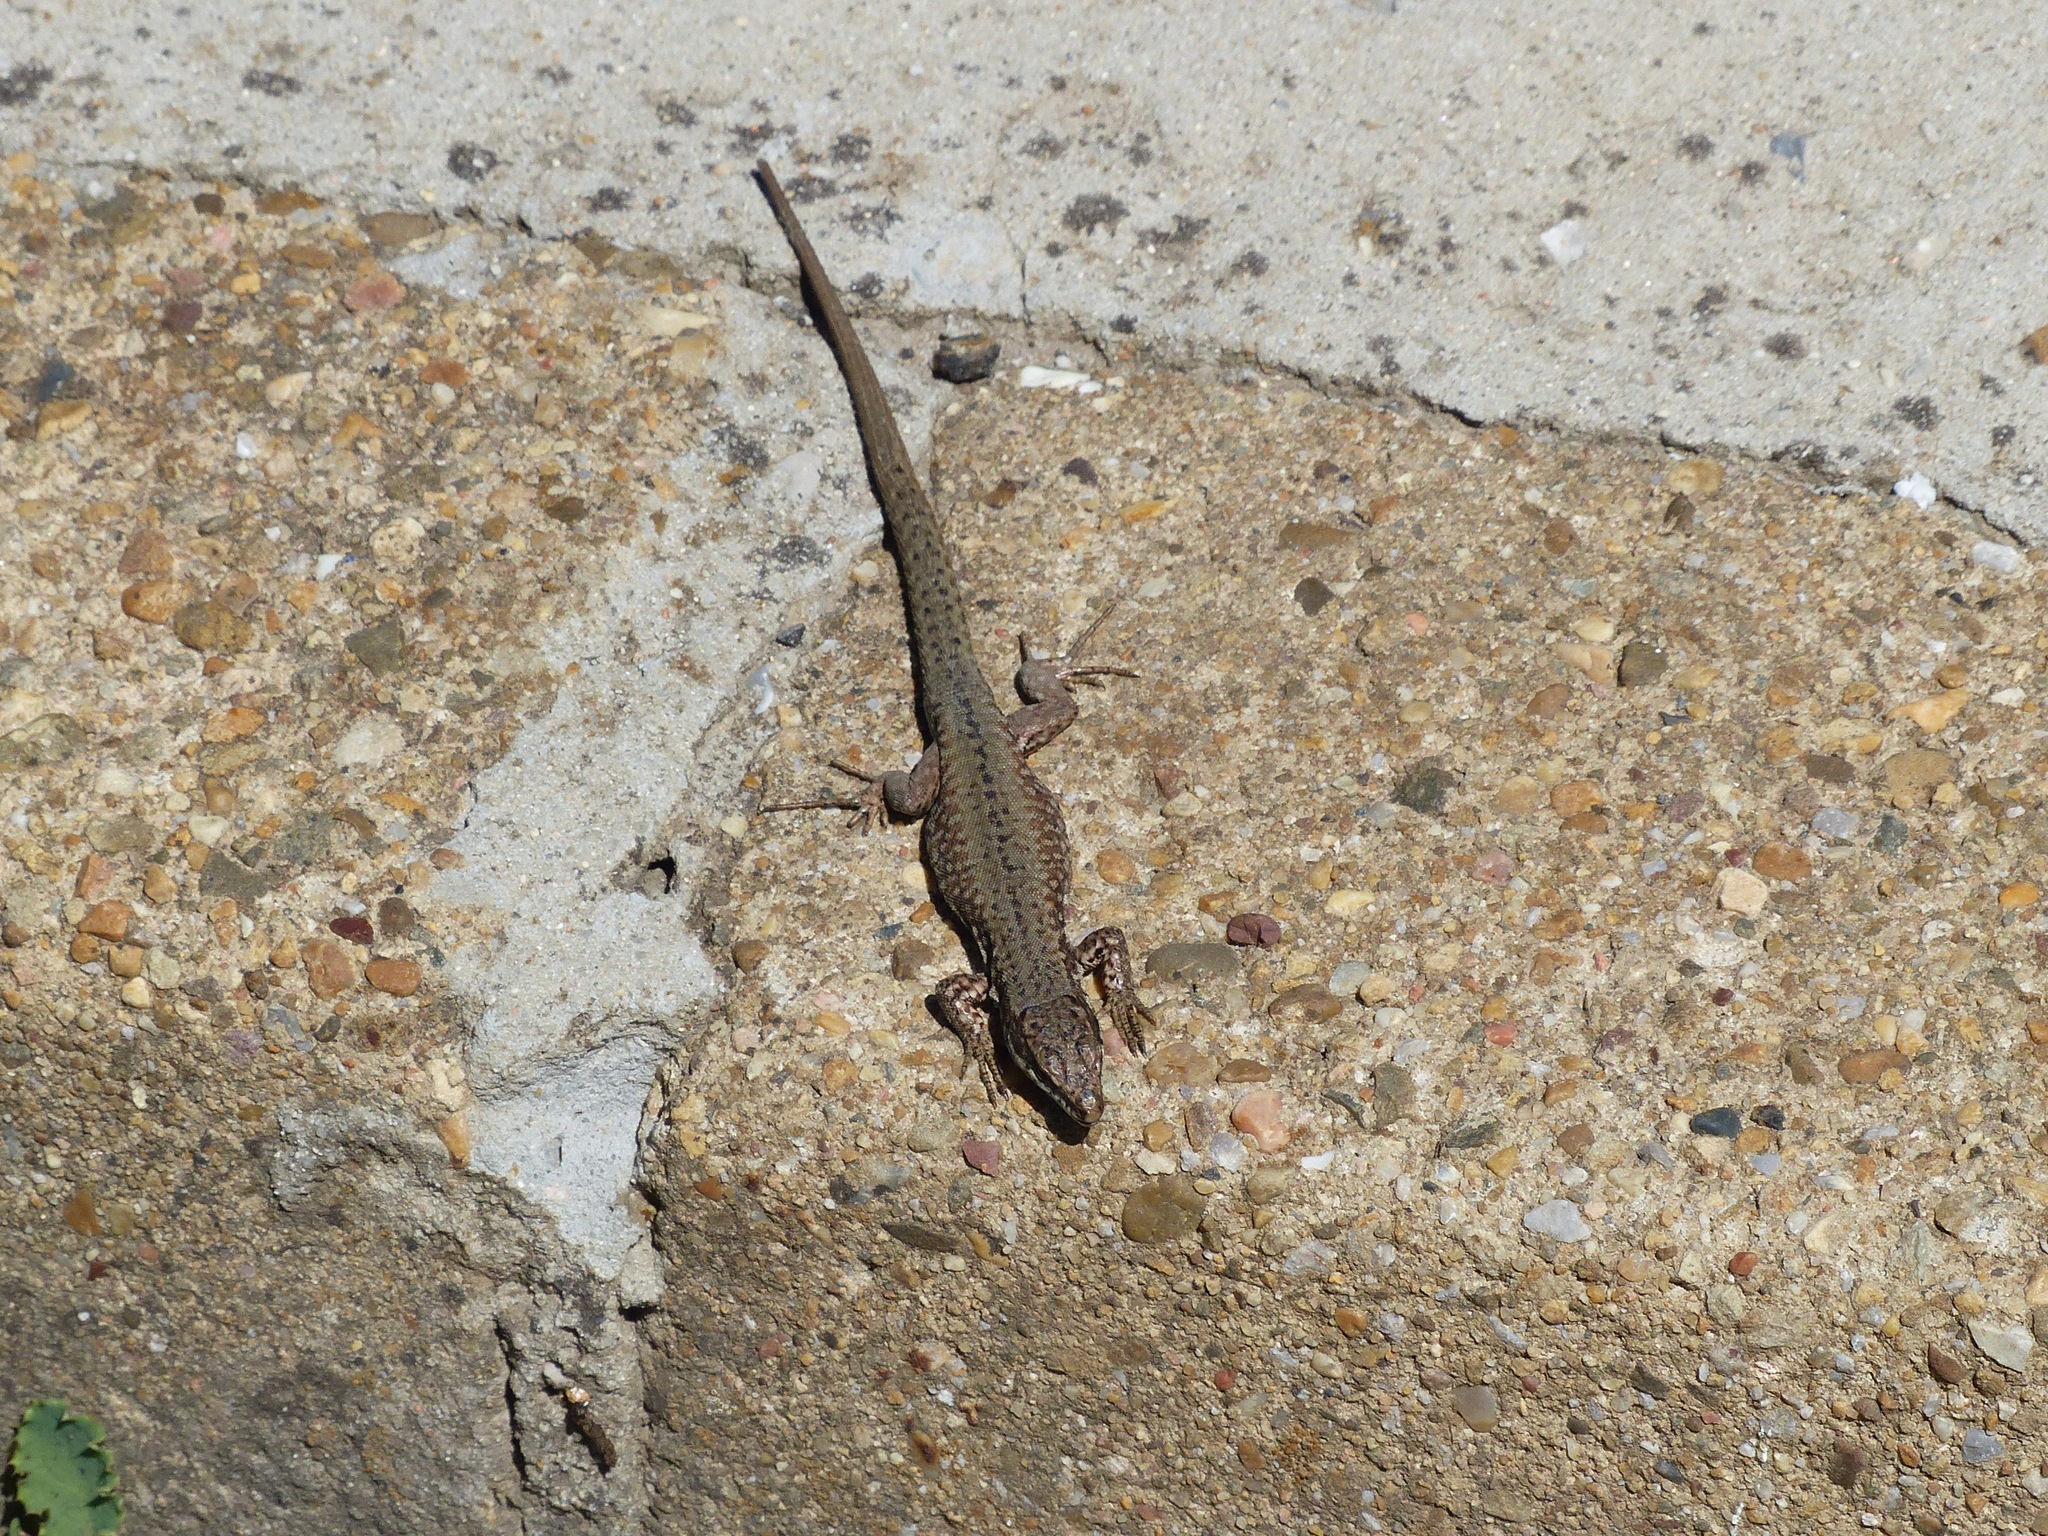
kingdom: Animalia
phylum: Chordata
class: Squamata
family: Lacertidae
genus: Podarcis
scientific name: Podarcis muralis
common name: Common wall lizard
